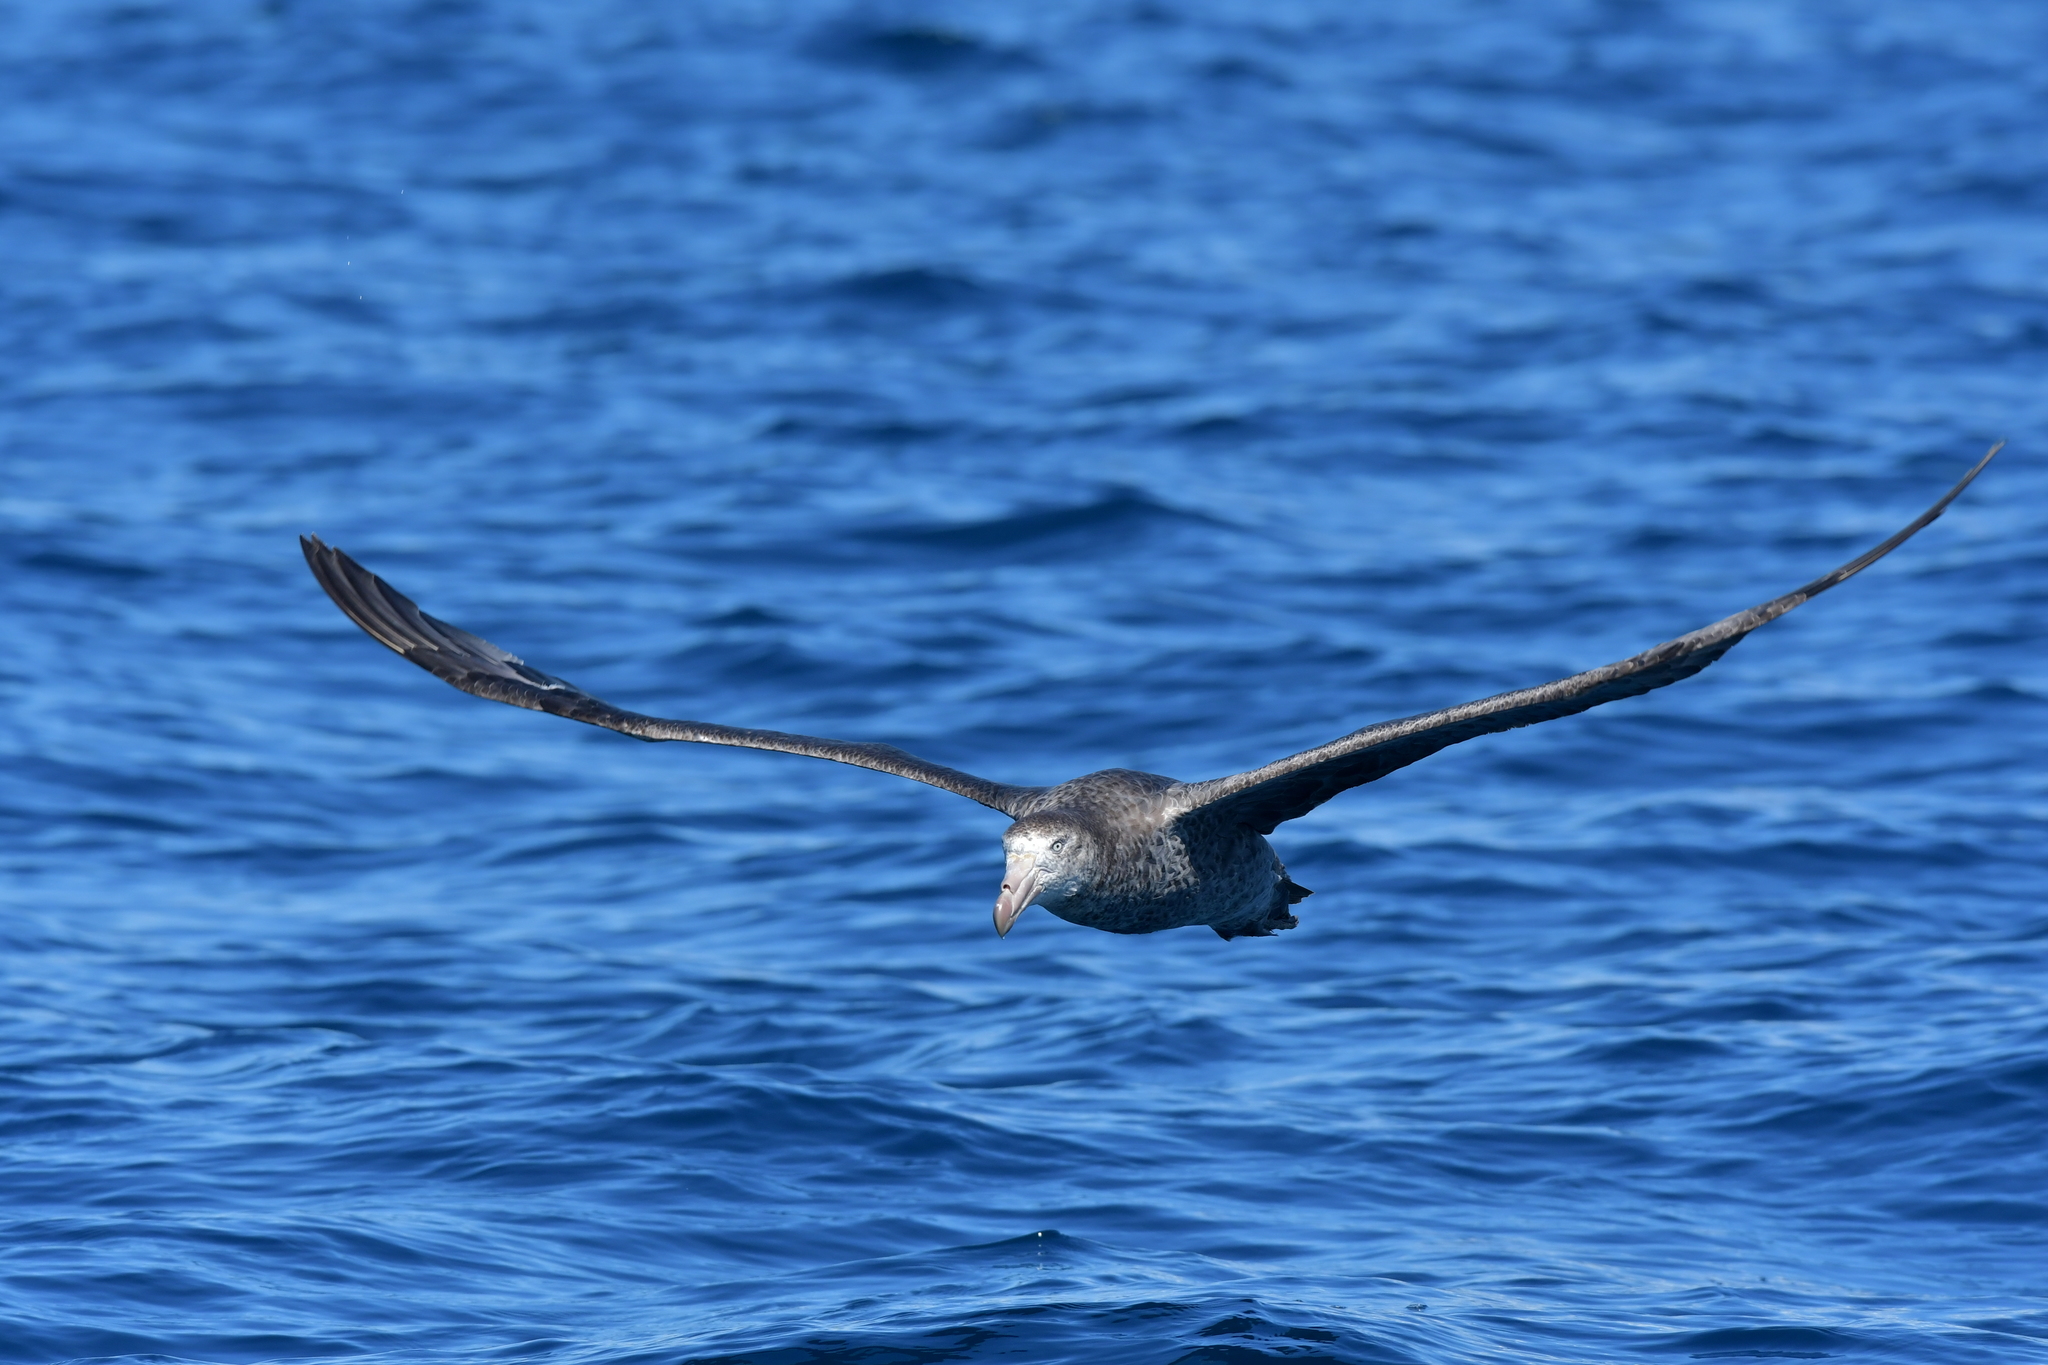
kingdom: Animalia
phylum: Chordata
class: Aves
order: Procellariiformes
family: Procellariidae
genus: Macronectes
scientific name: Macronectes halli
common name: Northern giant petrel
